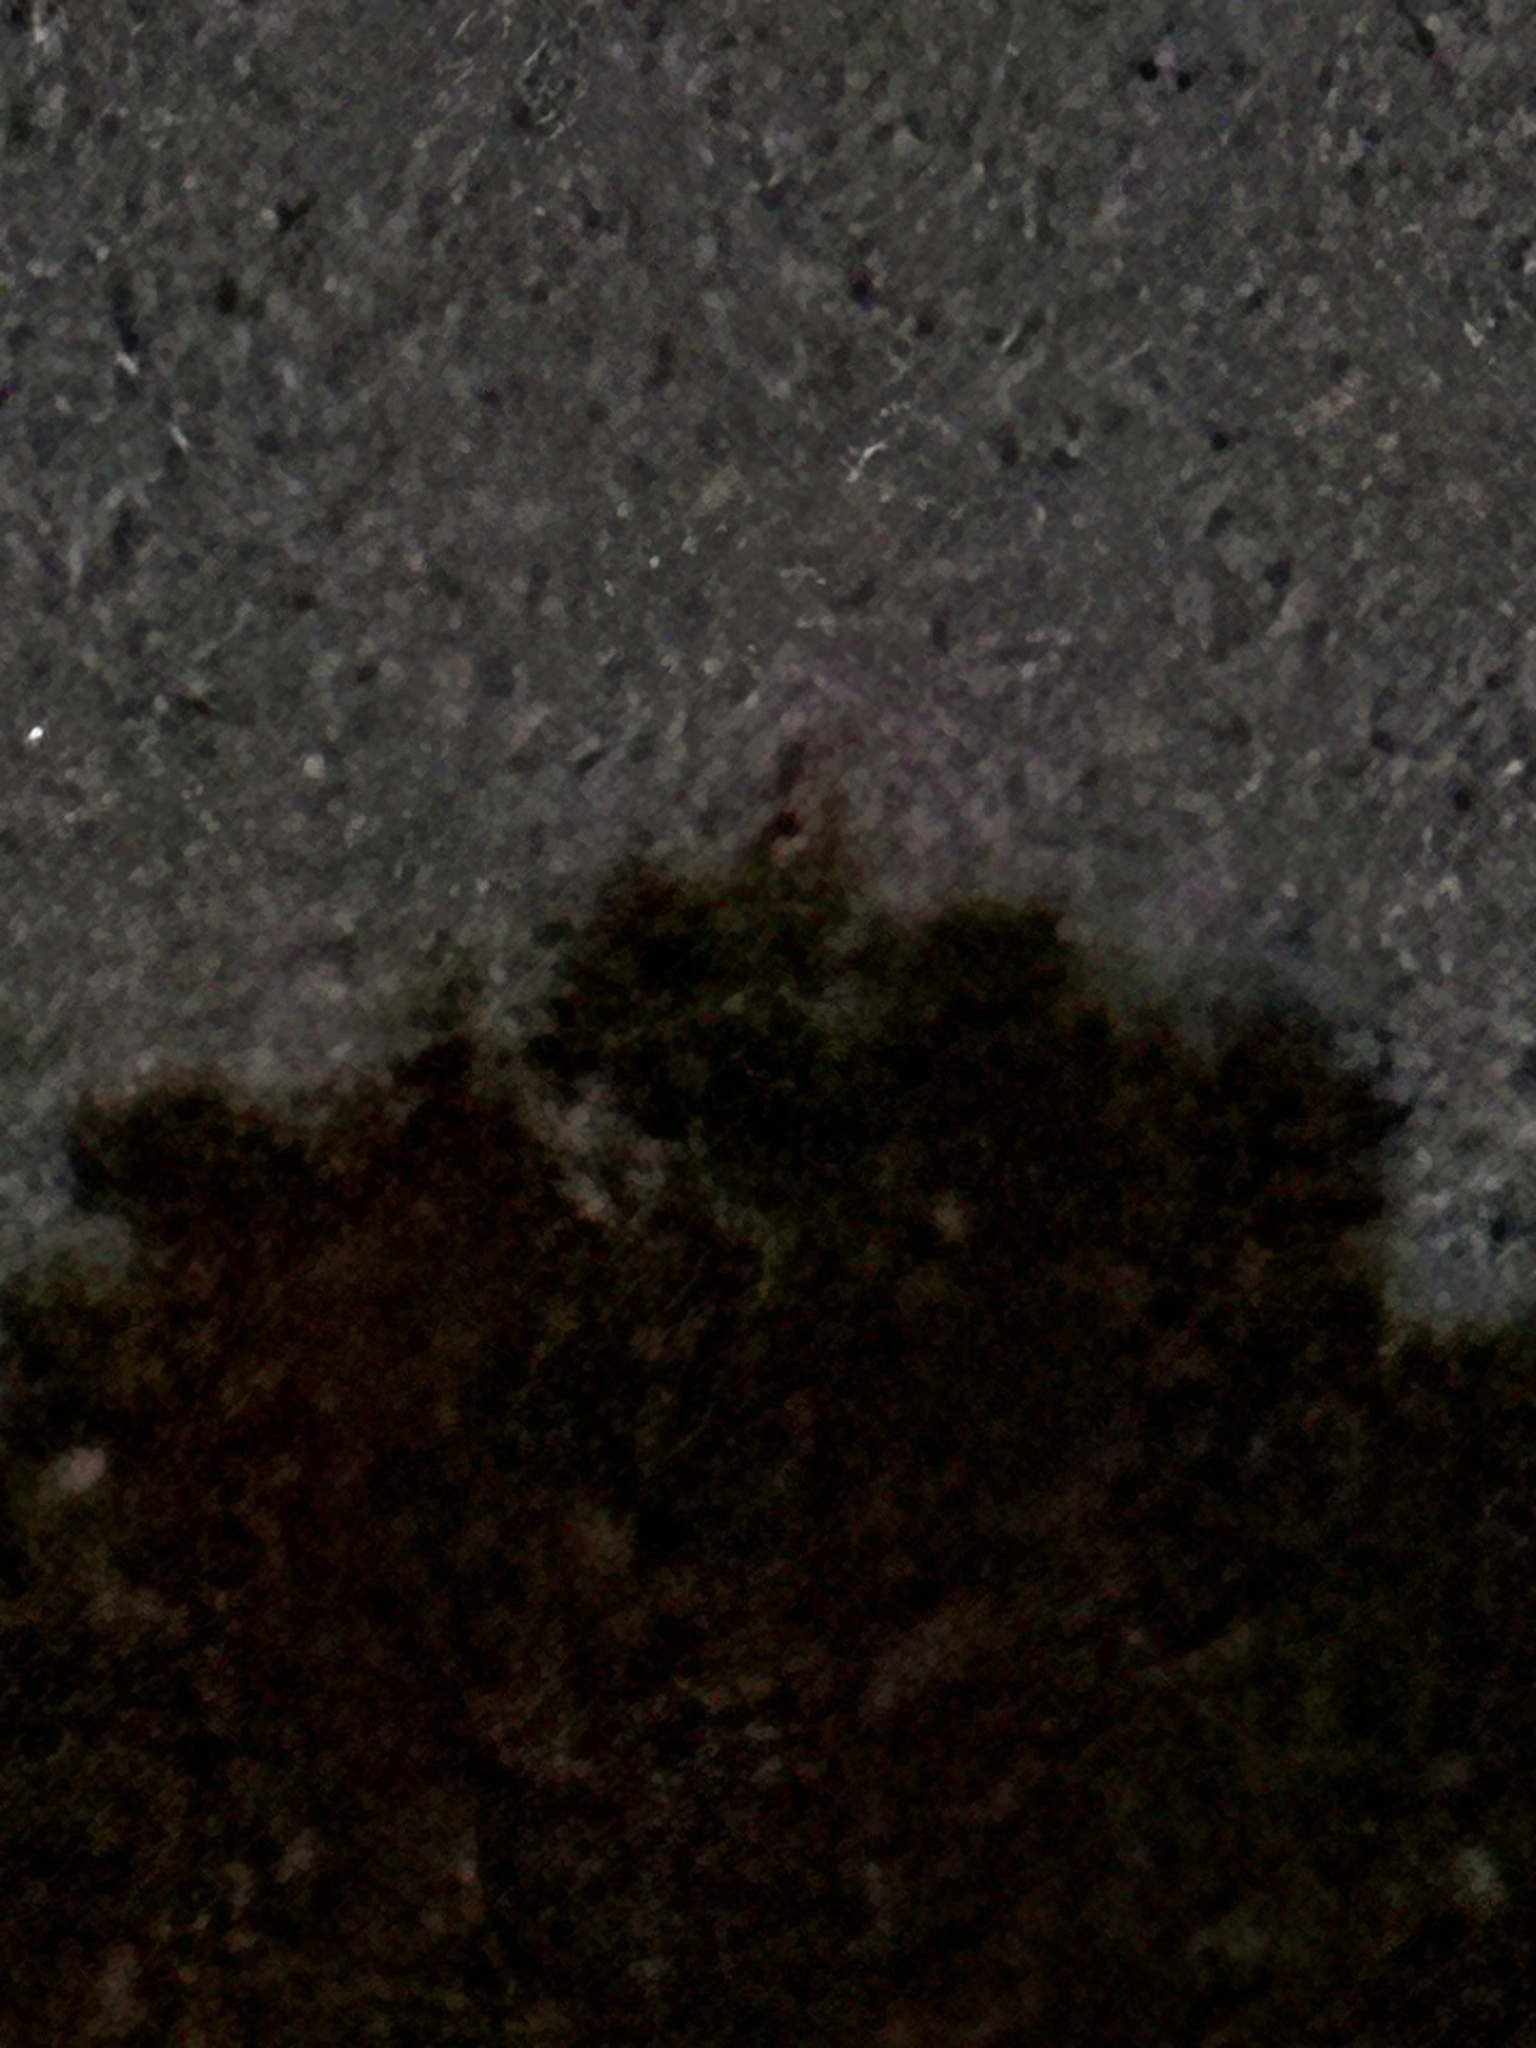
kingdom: Animalia
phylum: Chordata
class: Aves
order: Strigiformes
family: Strigidae
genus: Bubo
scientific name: Bubo virginianus
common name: Great horned owl
